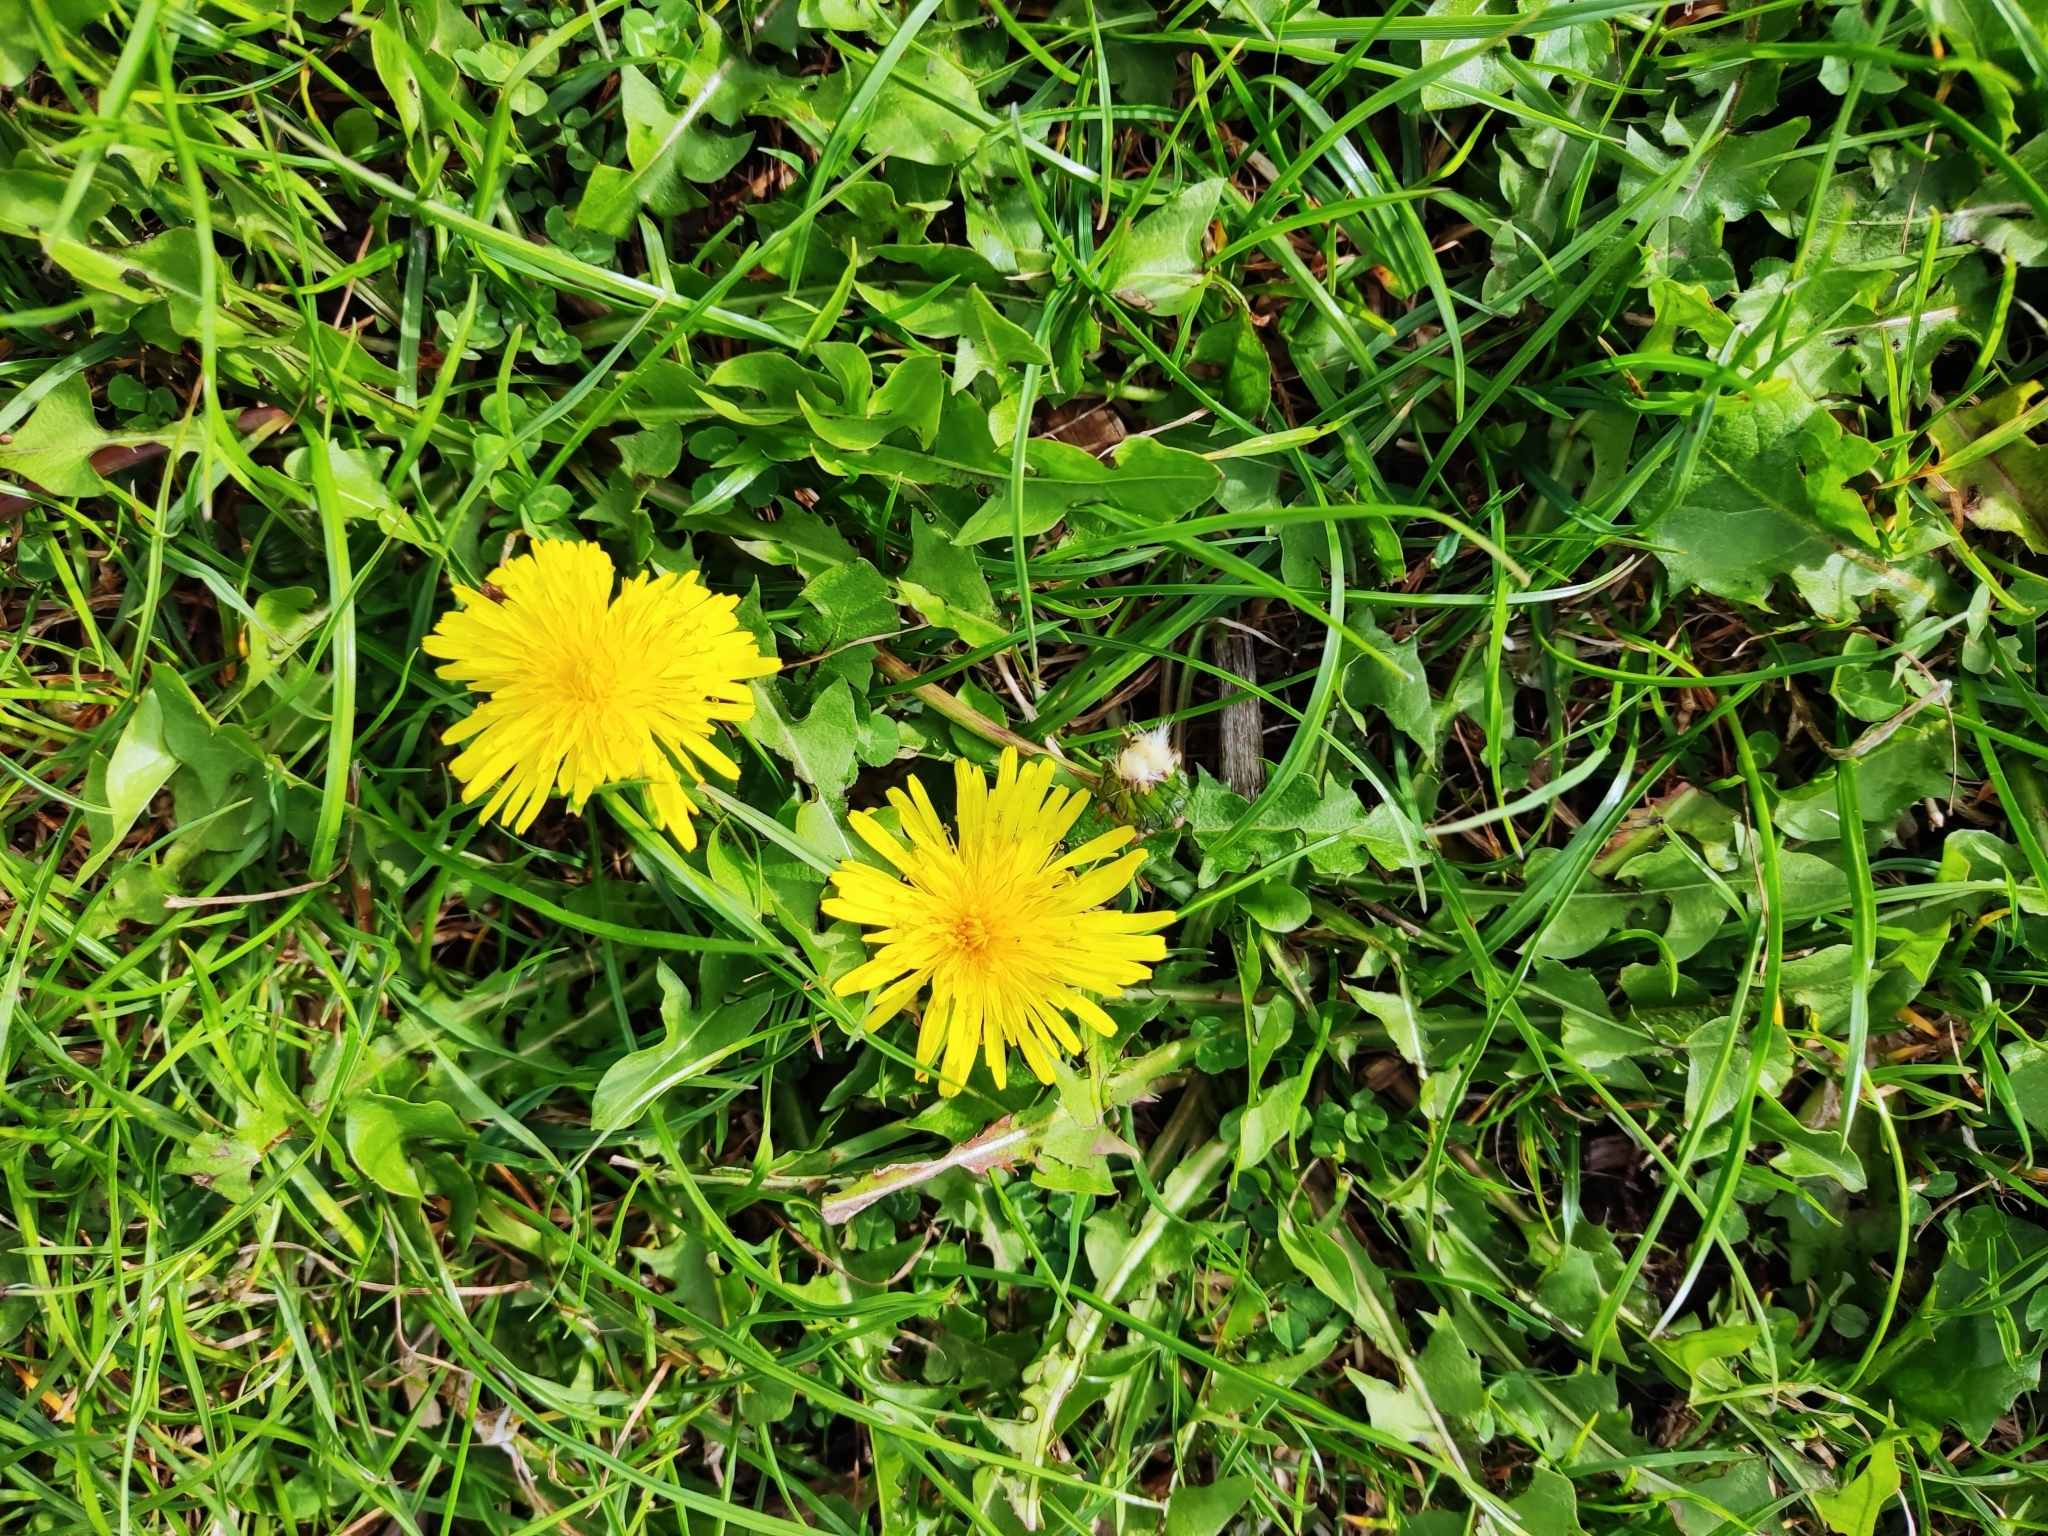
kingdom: Plantae
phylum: Tracheophyta
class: Magnoliopsida
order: Asterales
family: Asteraceae
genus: Taraxacum
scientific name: Taraxacum officinale
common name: Common dandelion
